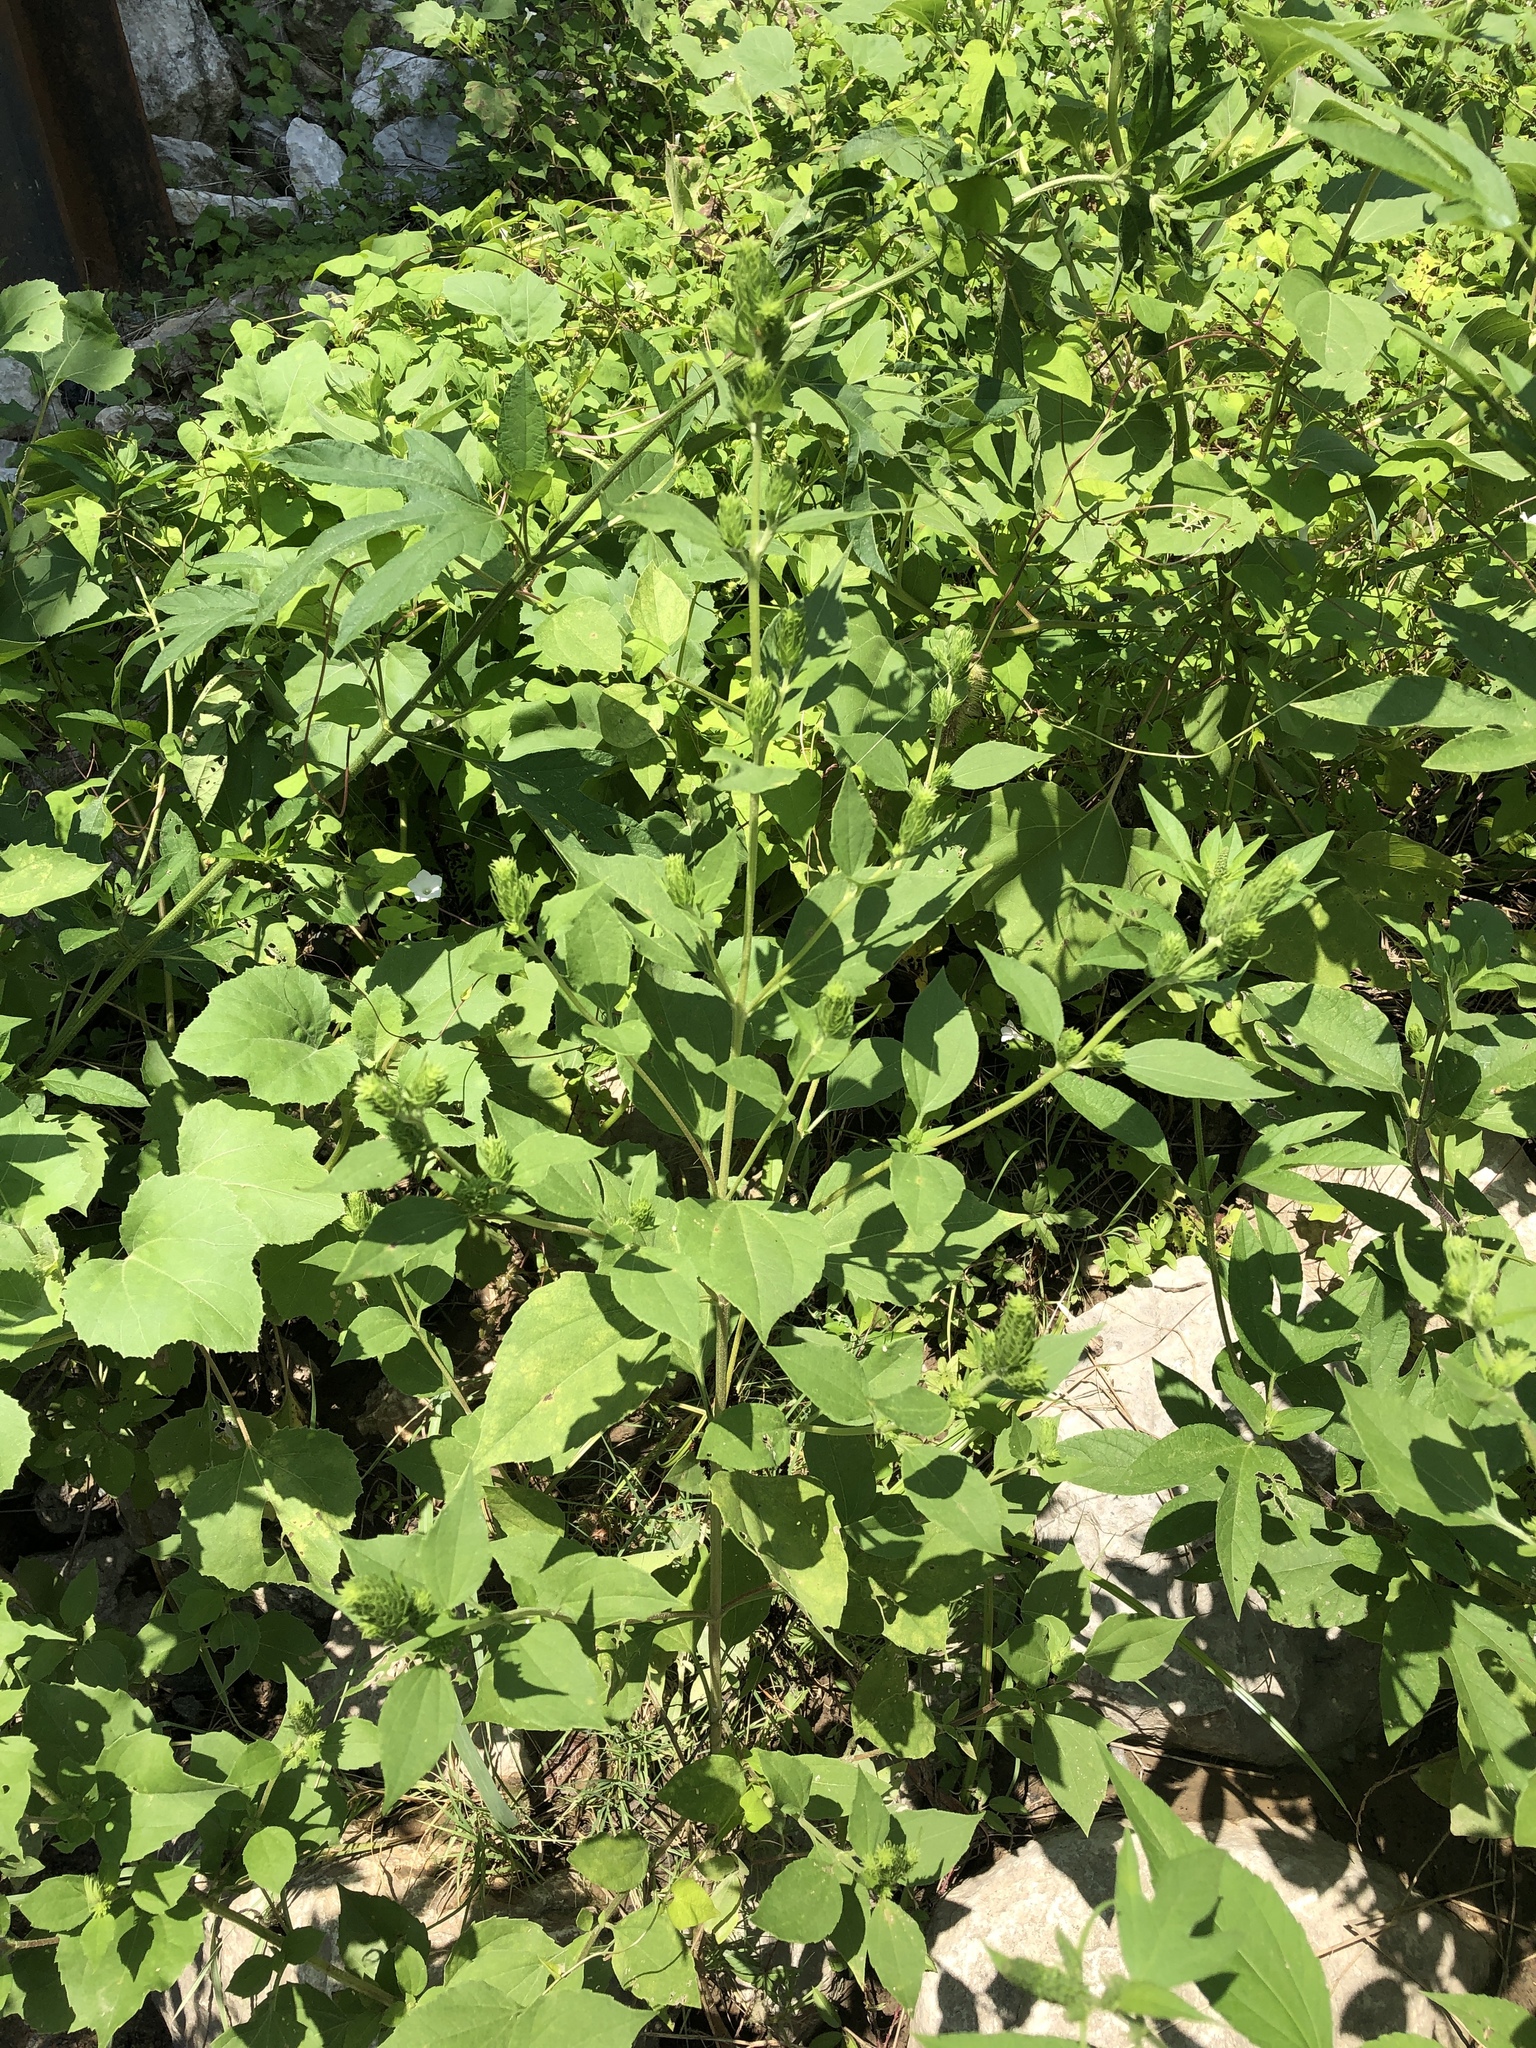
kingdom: Plantae
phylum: Tracheophyta
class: Magnoliopsida
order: Asterales
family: Asteraceae
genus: Iva
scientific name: Iva annua
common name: Marsh-elder
